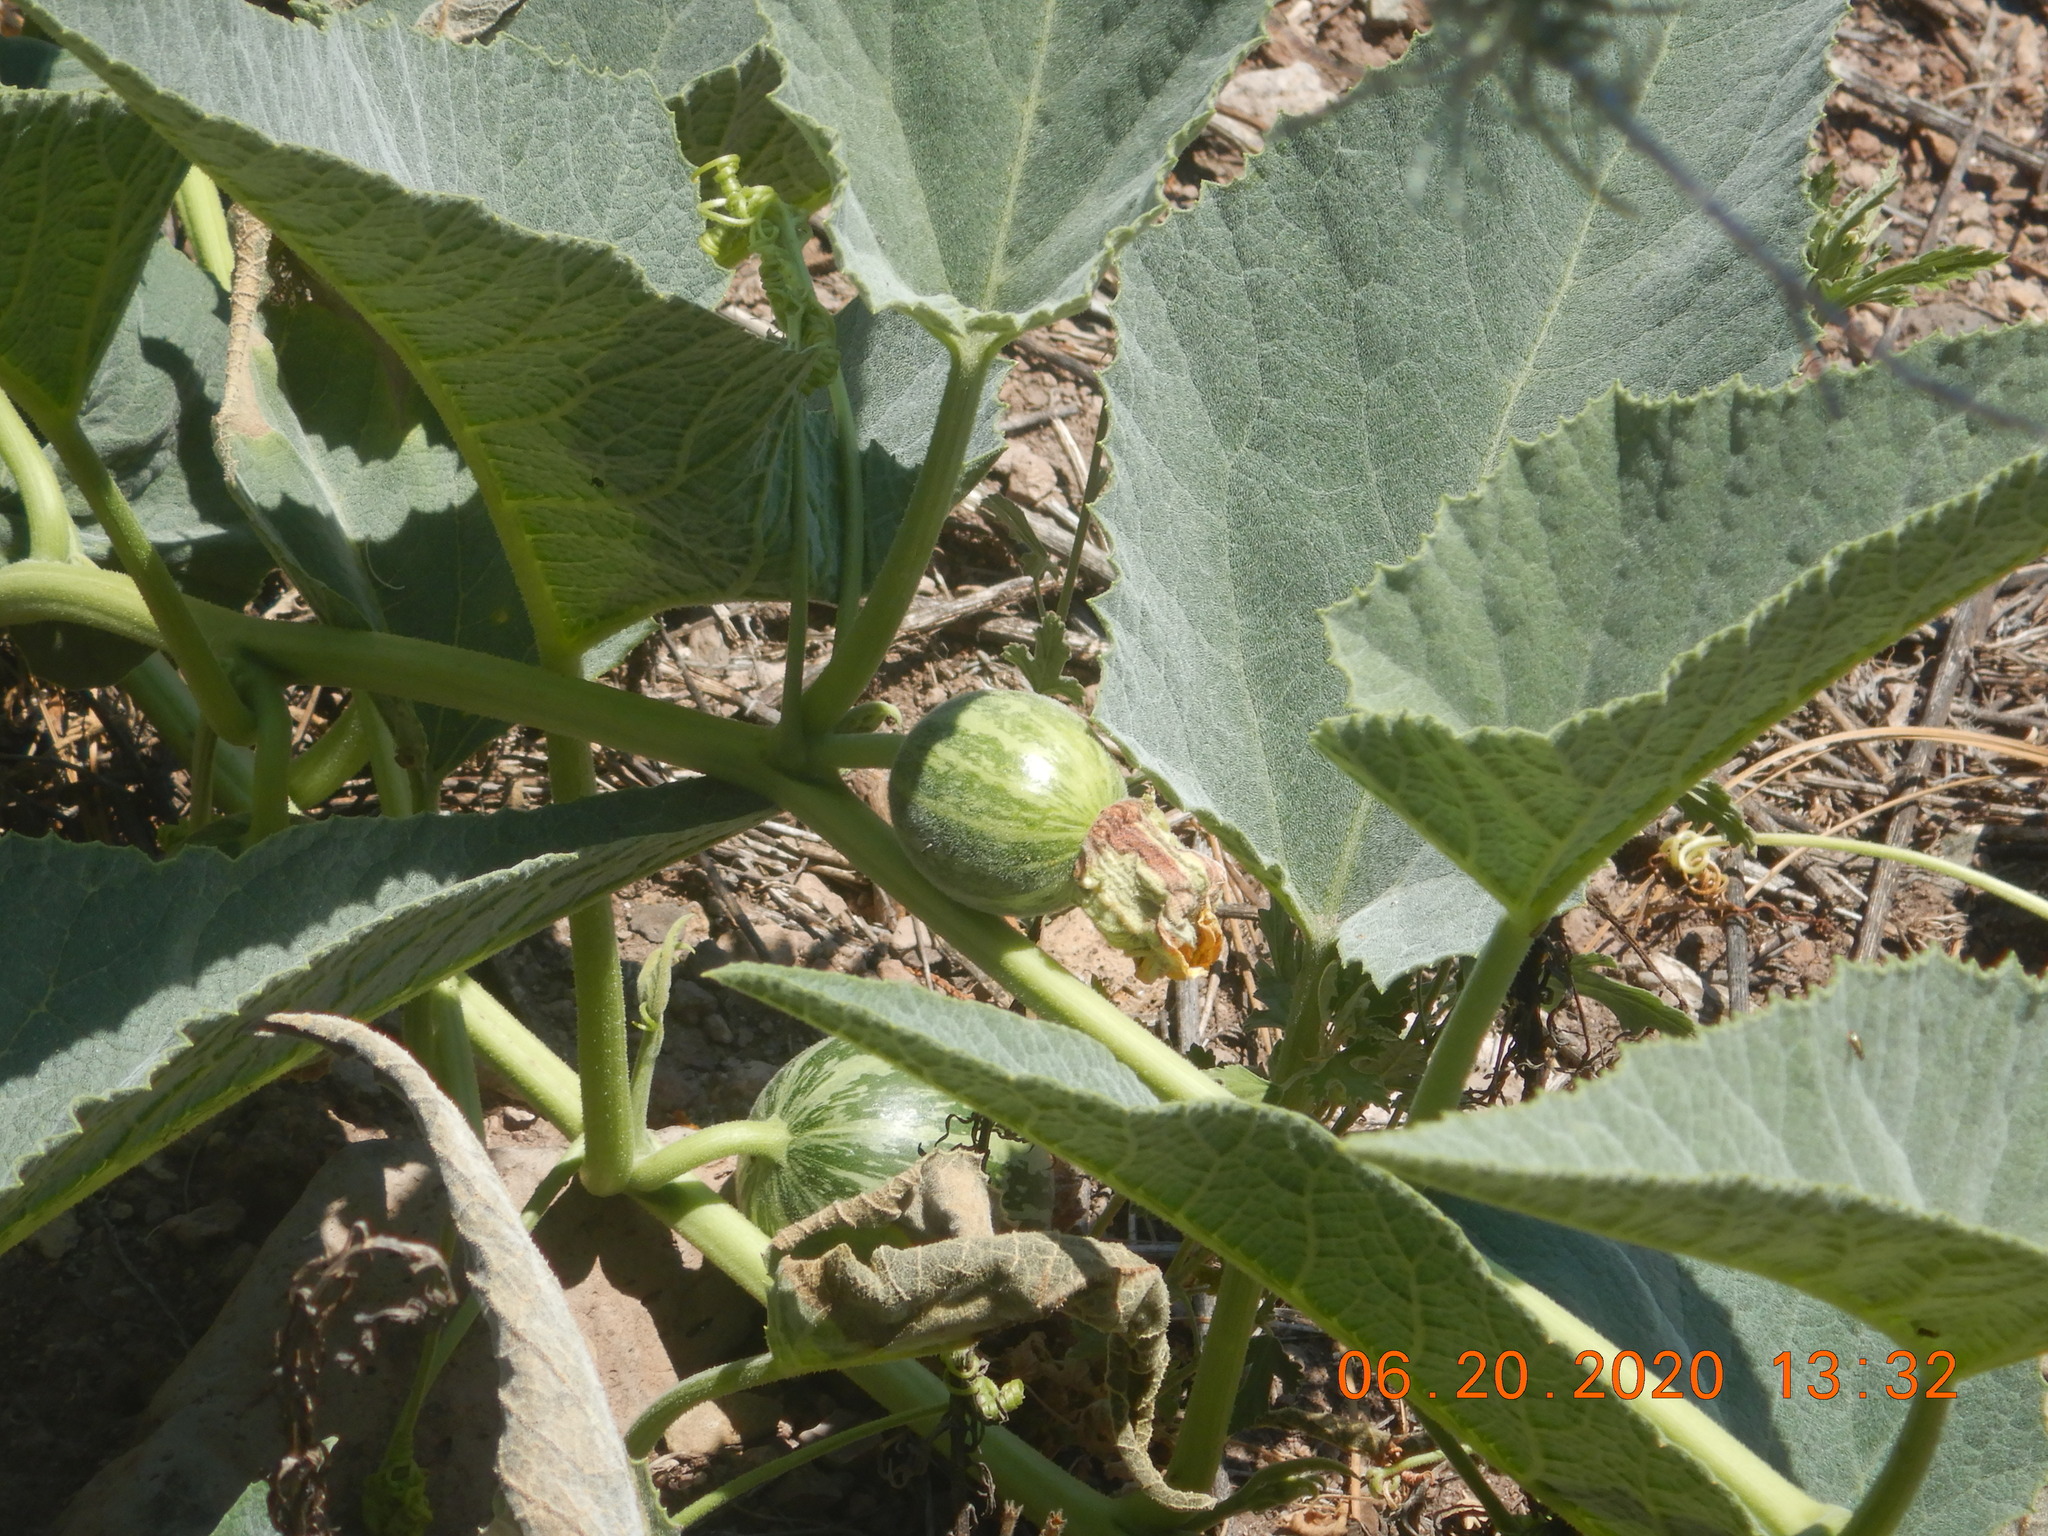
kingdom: Plantae
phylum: Tracheophyta
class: Magnoliopsida
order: Cucurbitales
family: Cucurbitaceae
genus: Cucurbita
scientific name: Cucurbita foetidissima
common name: Buffalo gourd
